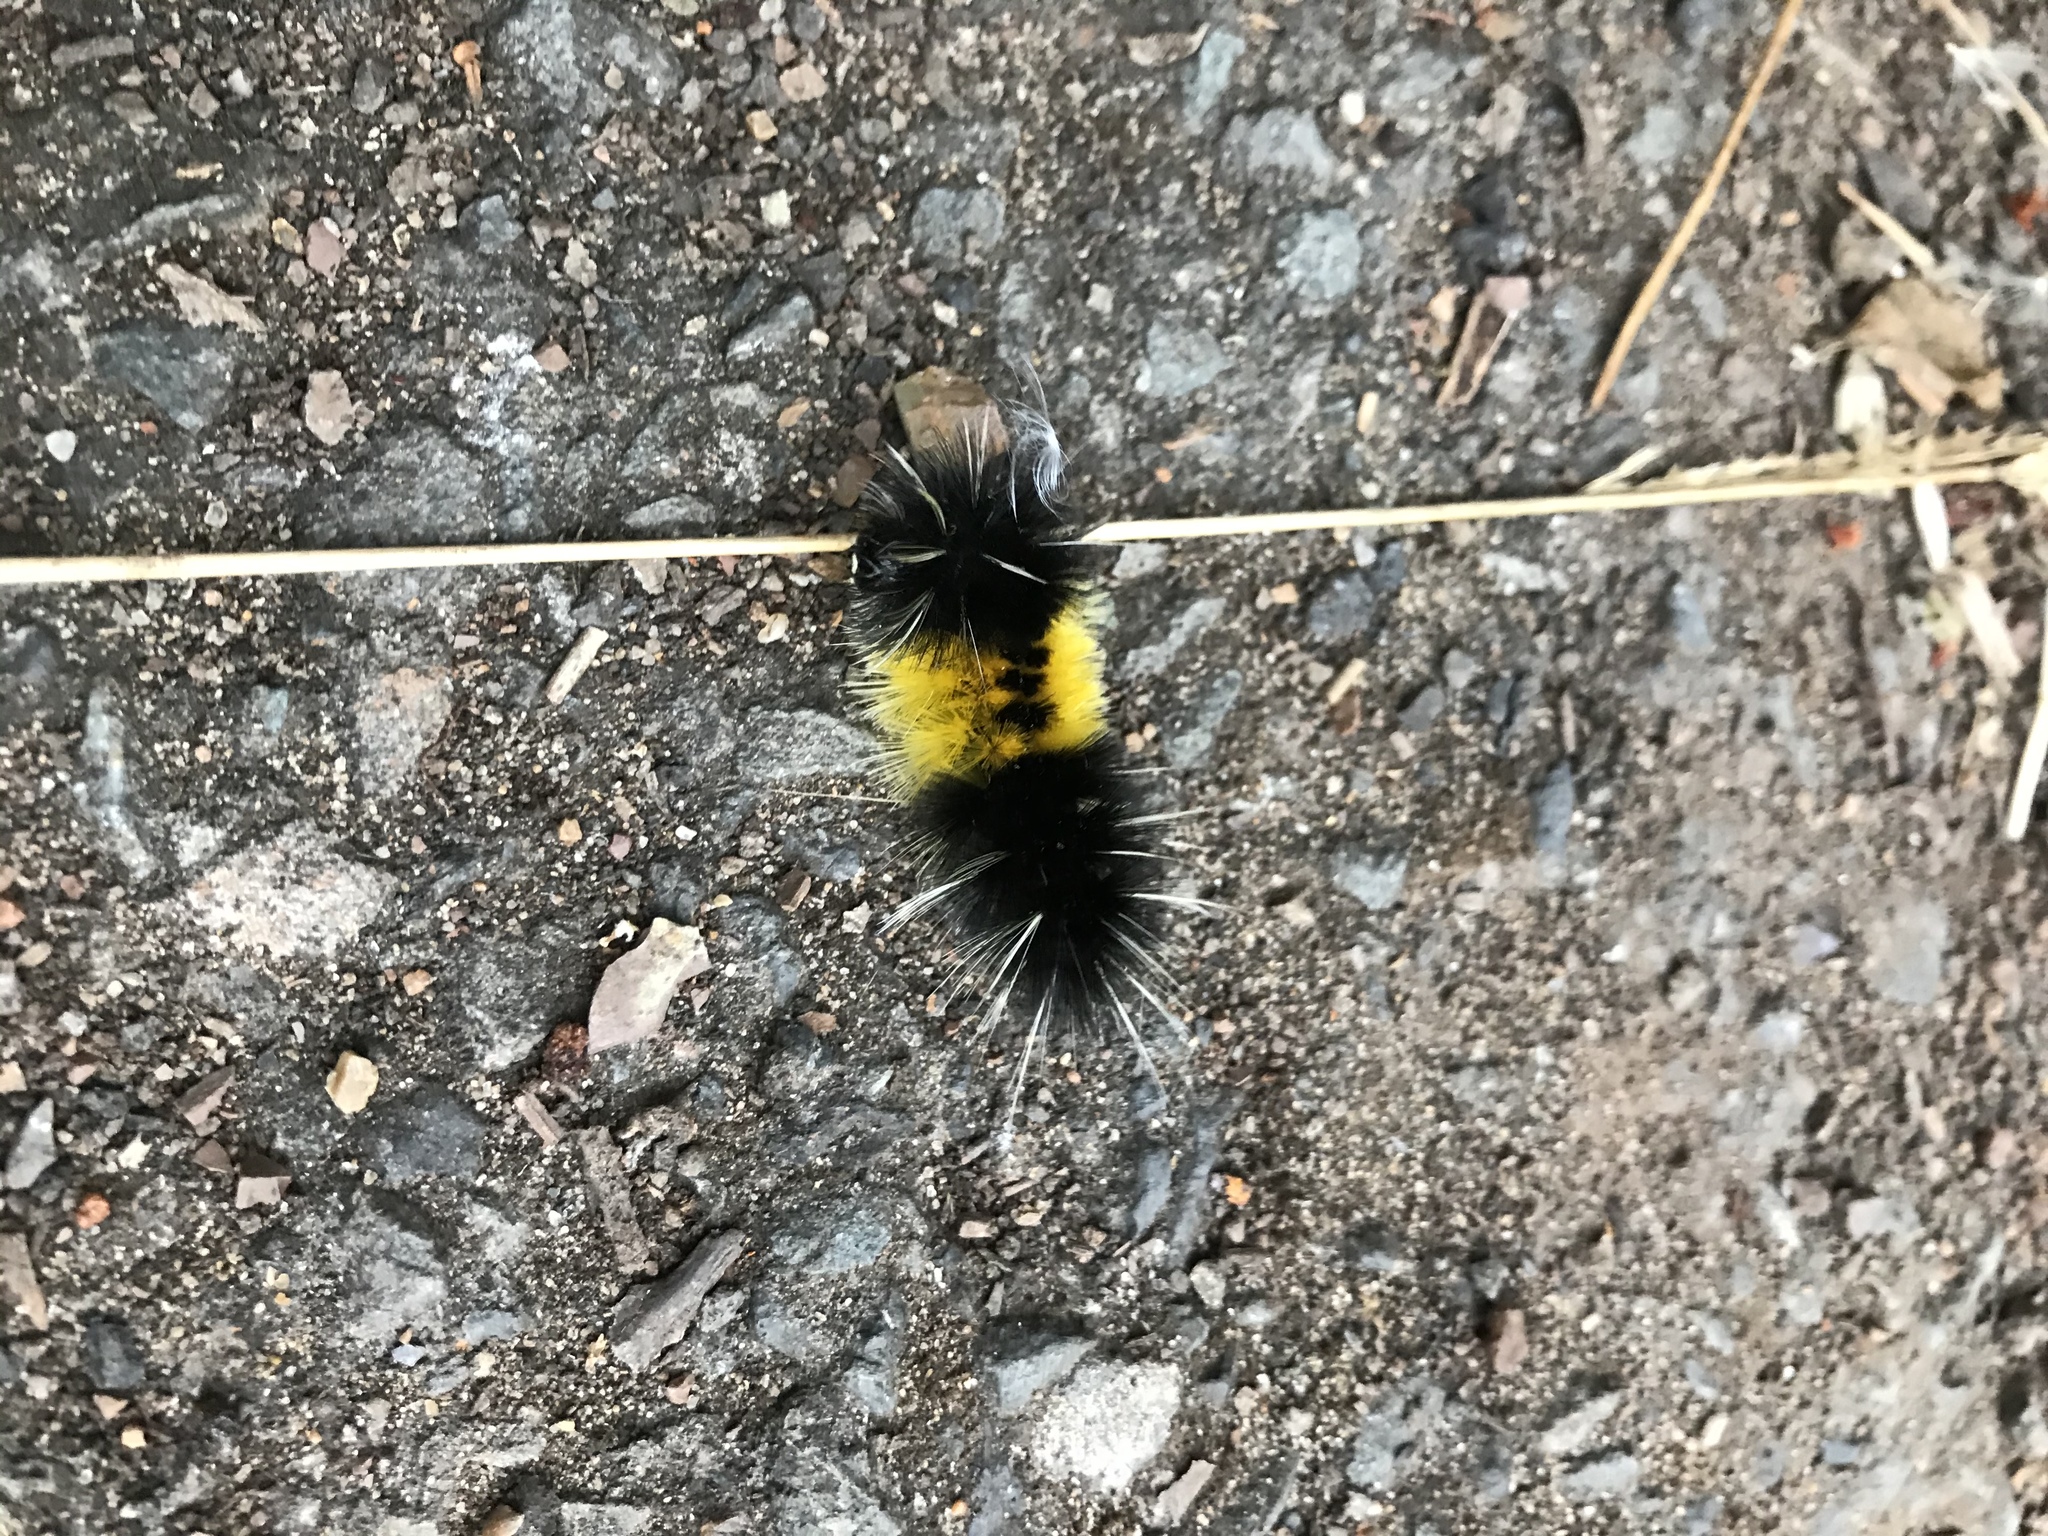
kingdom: Animalia
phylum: Arthropoda
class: Insecta
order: Lepidoptera
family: Erebidae
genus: Lophocampa
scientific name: Lophocampa maculata
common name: Spotted tussock moth
